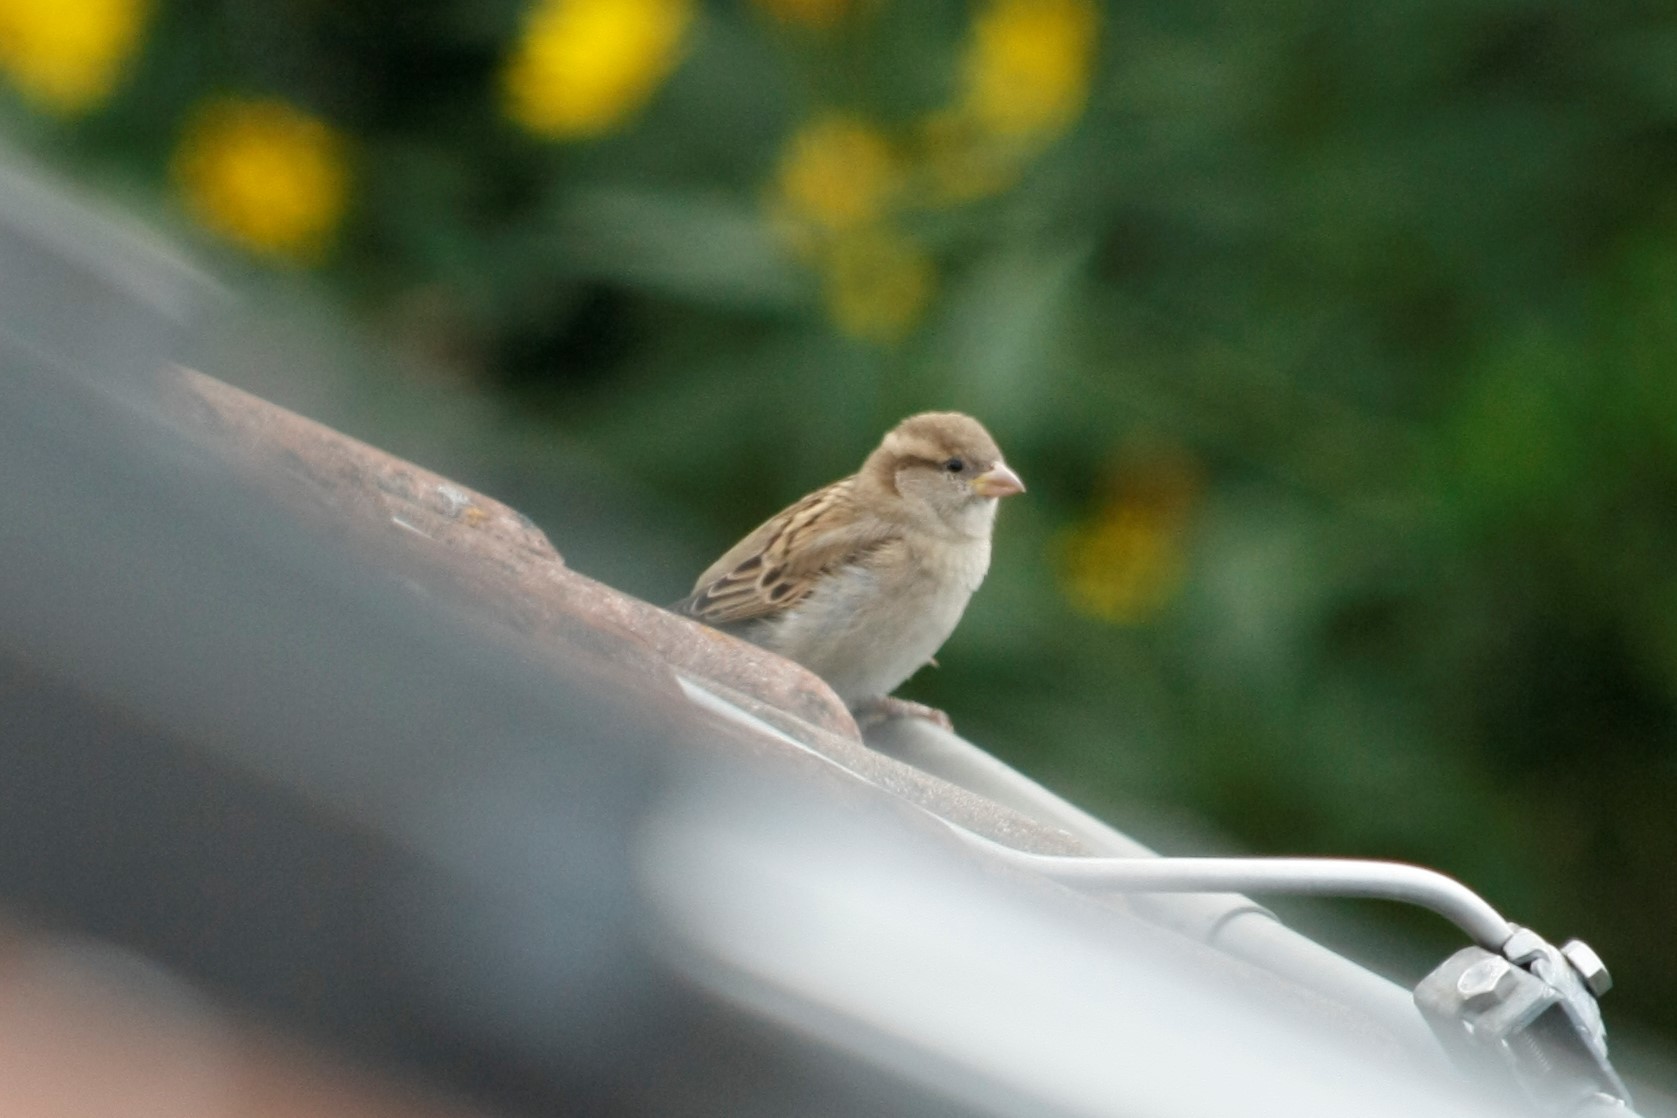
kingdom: Animalia
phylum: Chordata
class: Aves
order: Passeriformes
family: Passeridae
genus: Passer
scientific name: Passer domesticus
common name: House sparrow
